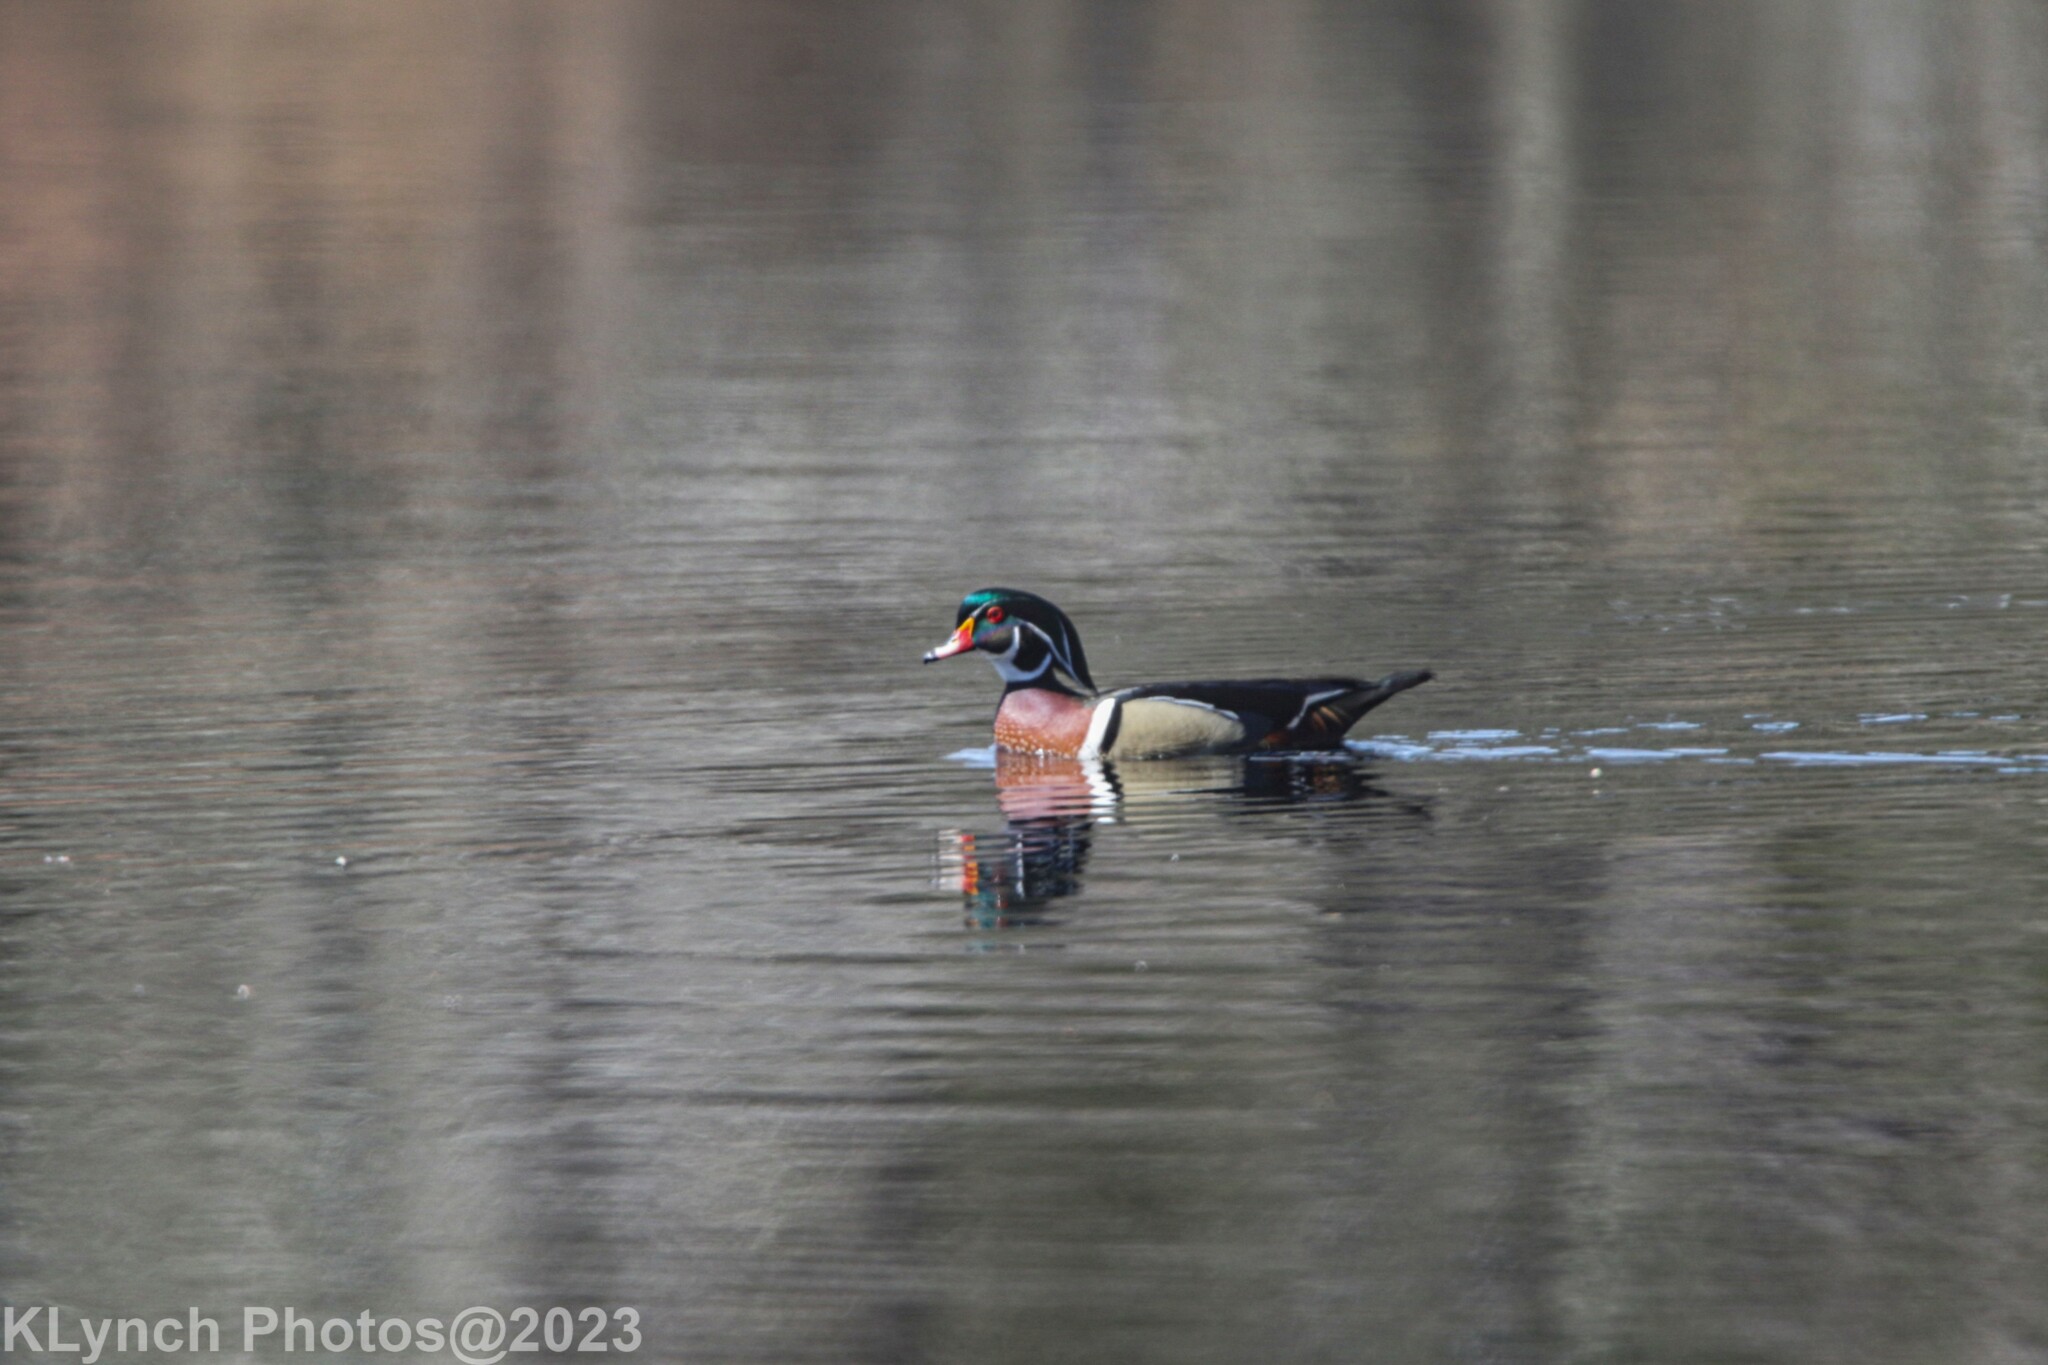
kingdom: Animalia
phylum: Chordata
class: Aves
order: Anseriformes
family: Anatidae
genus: Aix
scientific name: Aix sponsa
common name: Wood duck
